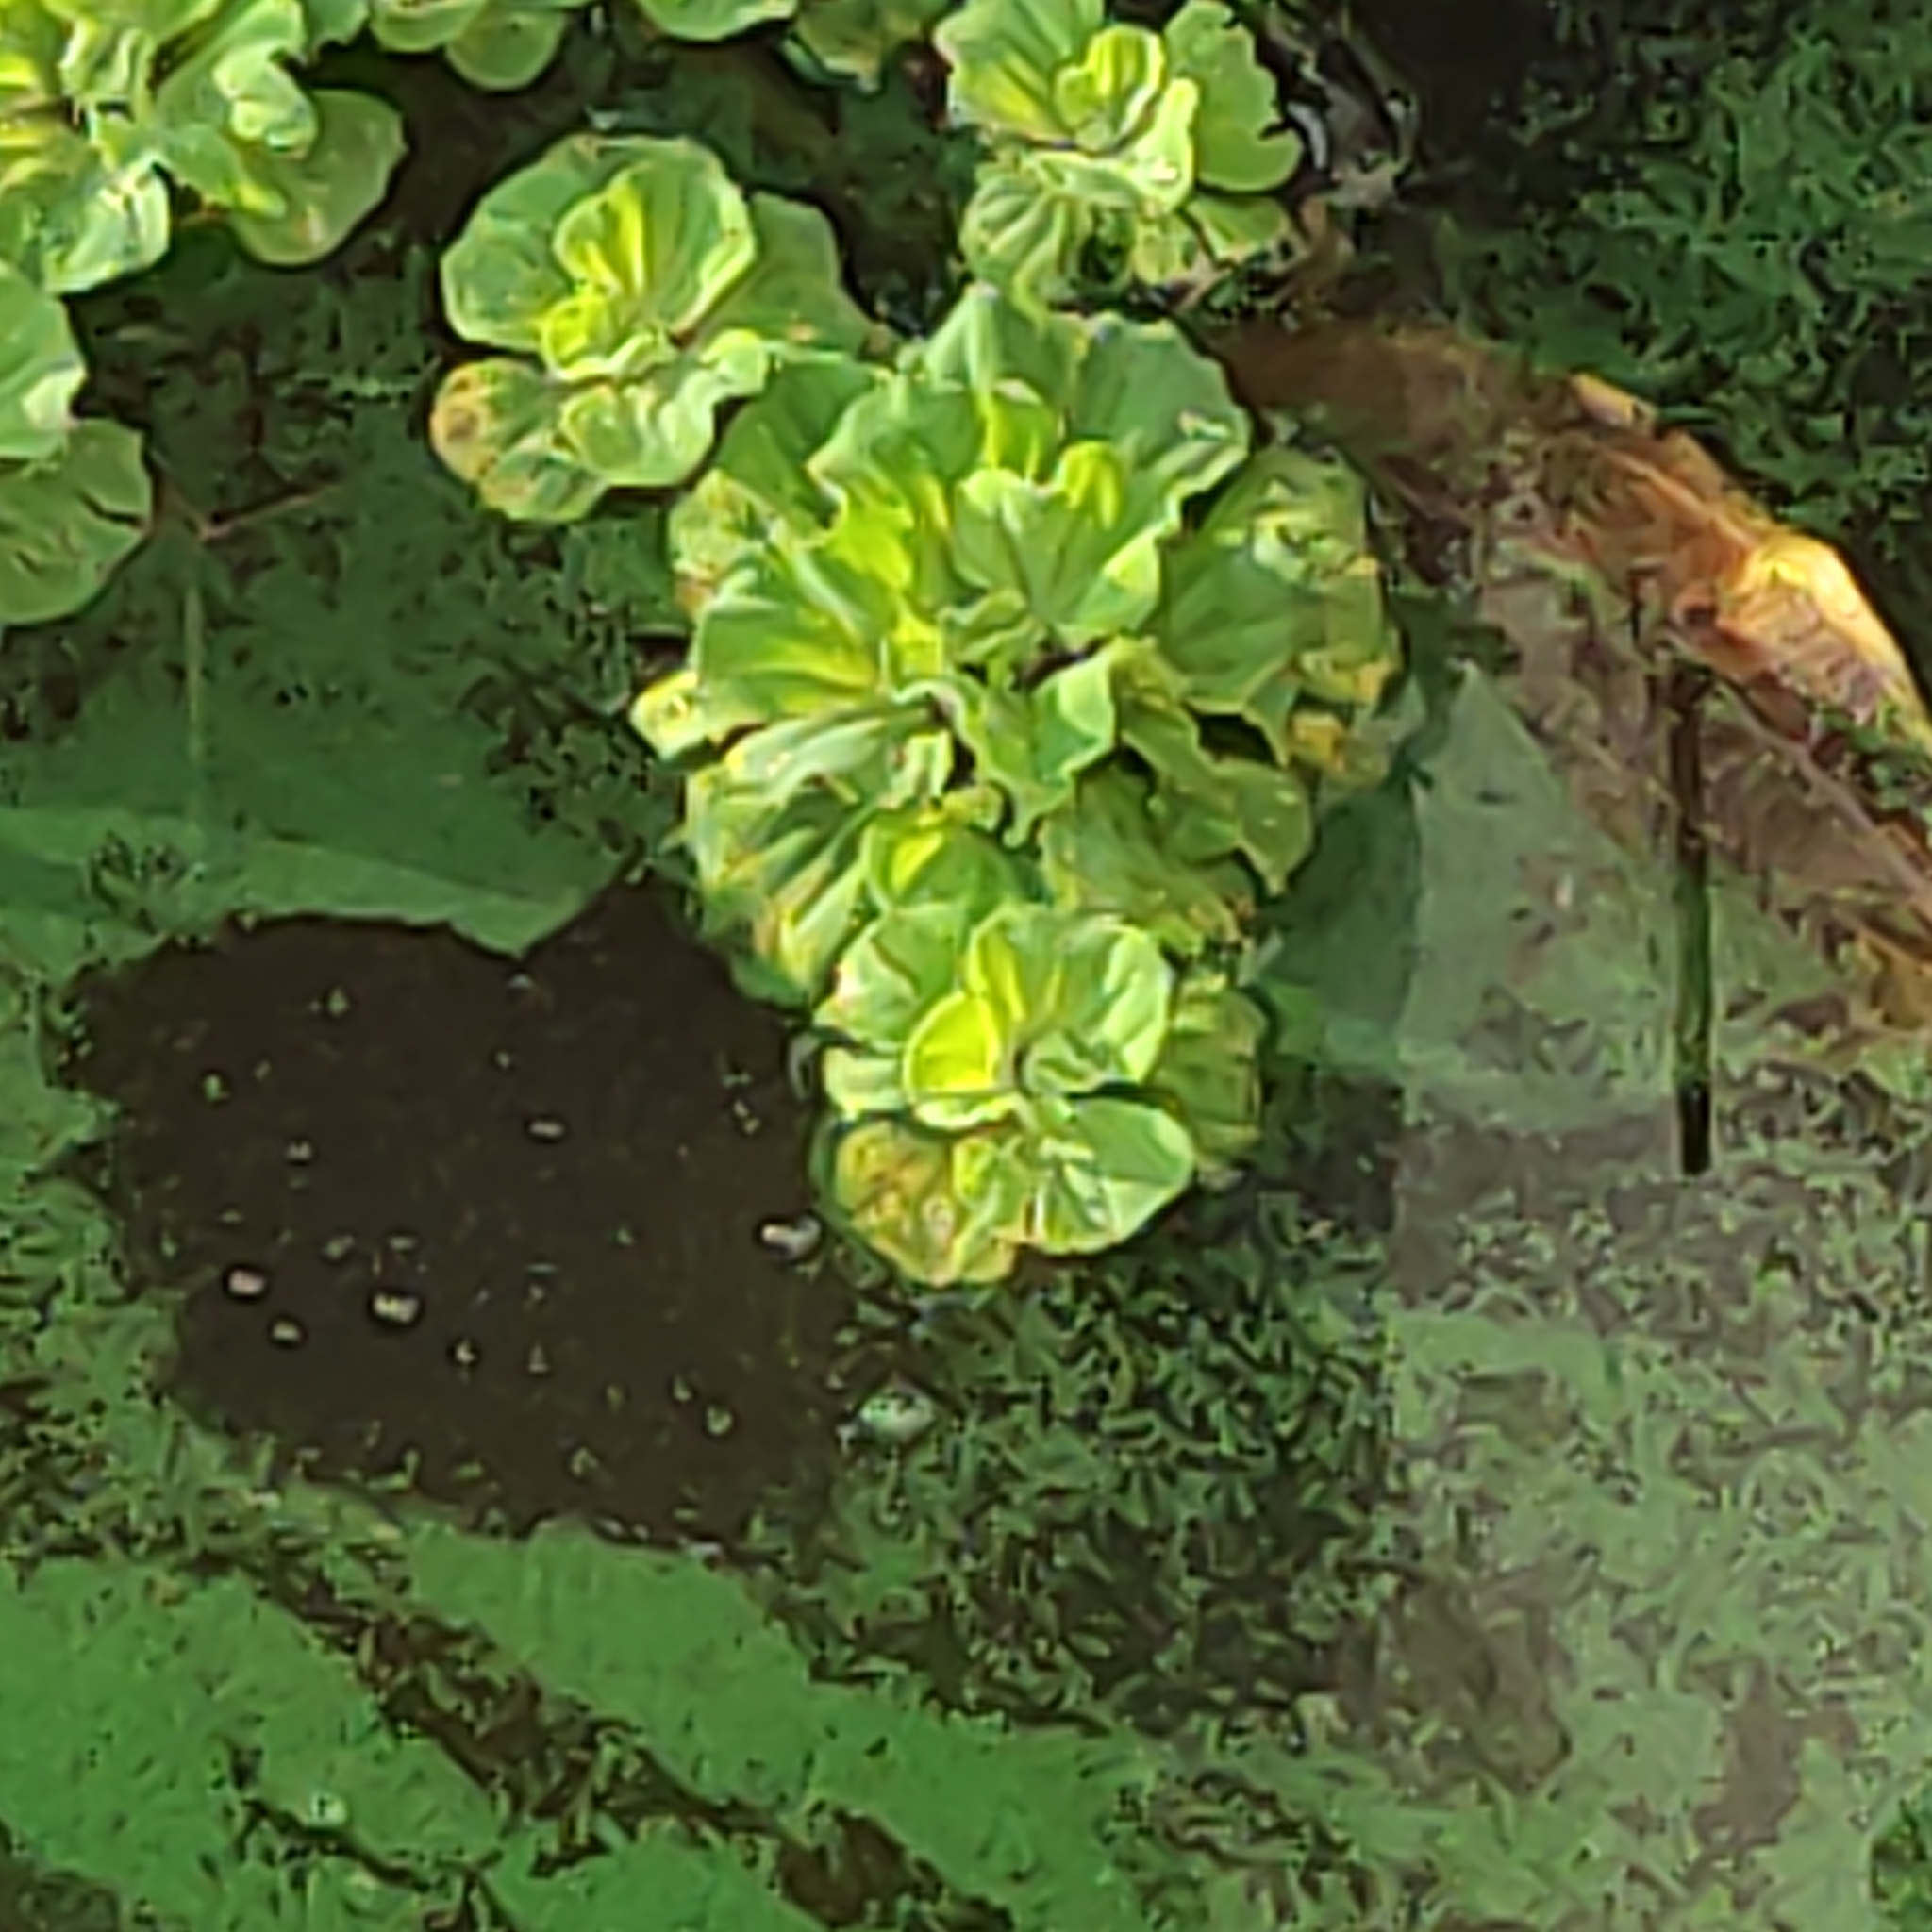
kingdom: Plantae
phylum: Tracheophyta
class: Liliopsida
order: Alismatales
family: Araceae
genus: Pistia
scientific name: Pistia stratiotes
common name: Water lettuce
